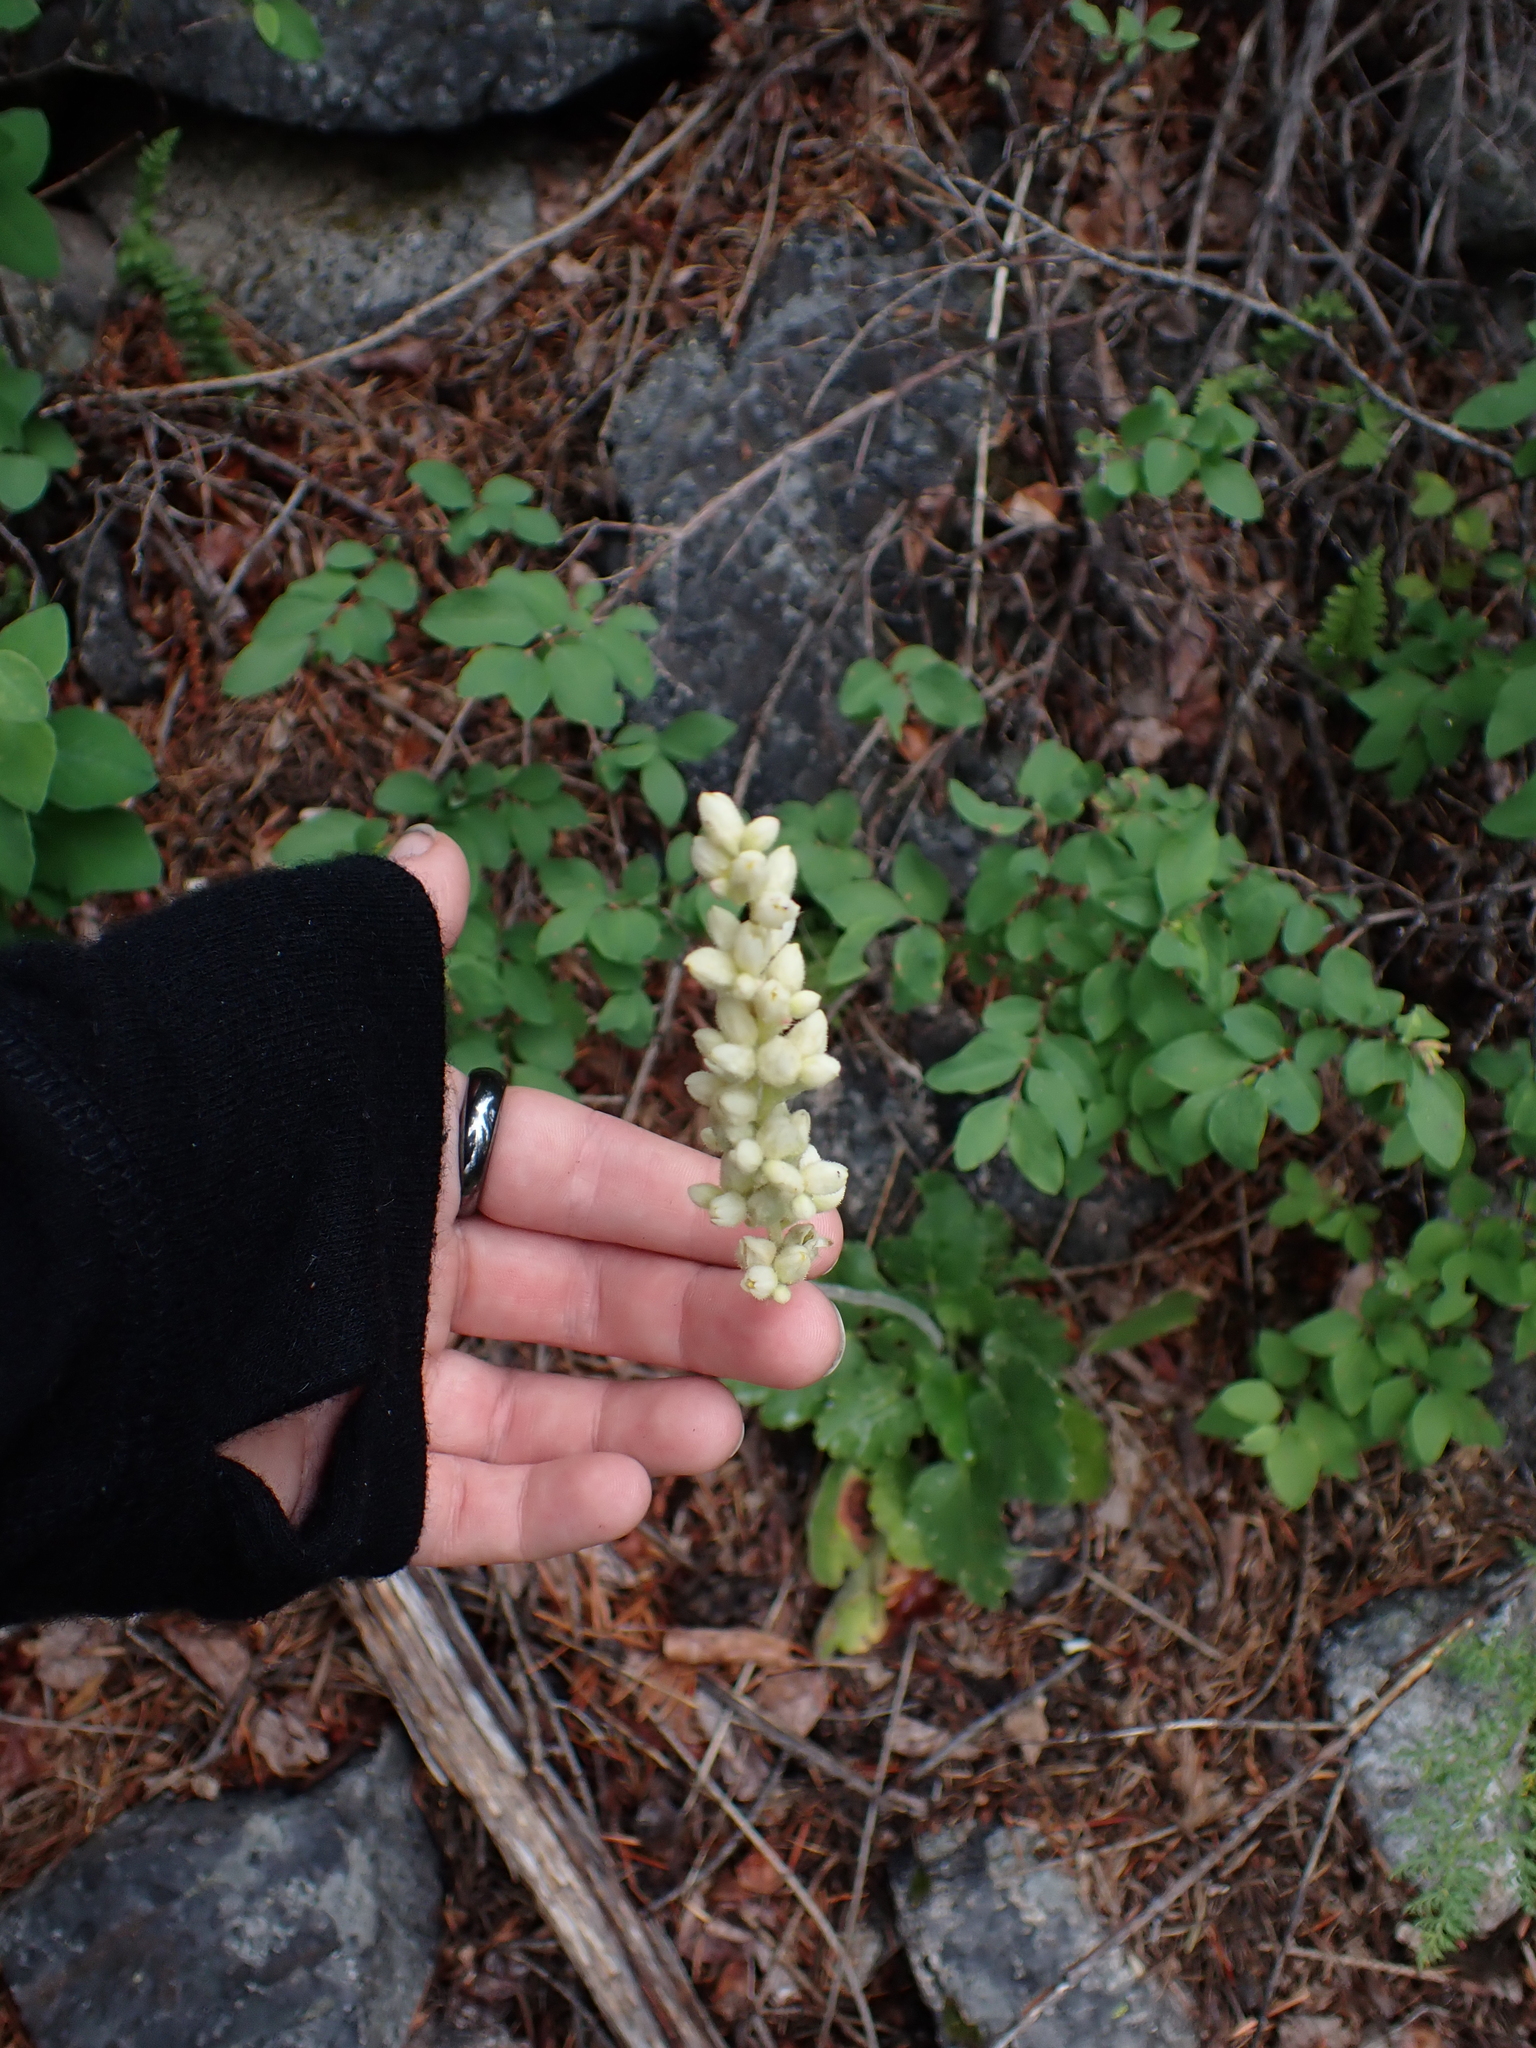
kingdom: Plantae
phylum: Tracheophyta
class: Magnoliopsida
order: Saxifragales
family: Saxifragaceae
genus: Heuchera
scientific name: Heuchera cylindrica
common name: Mat alumroot
